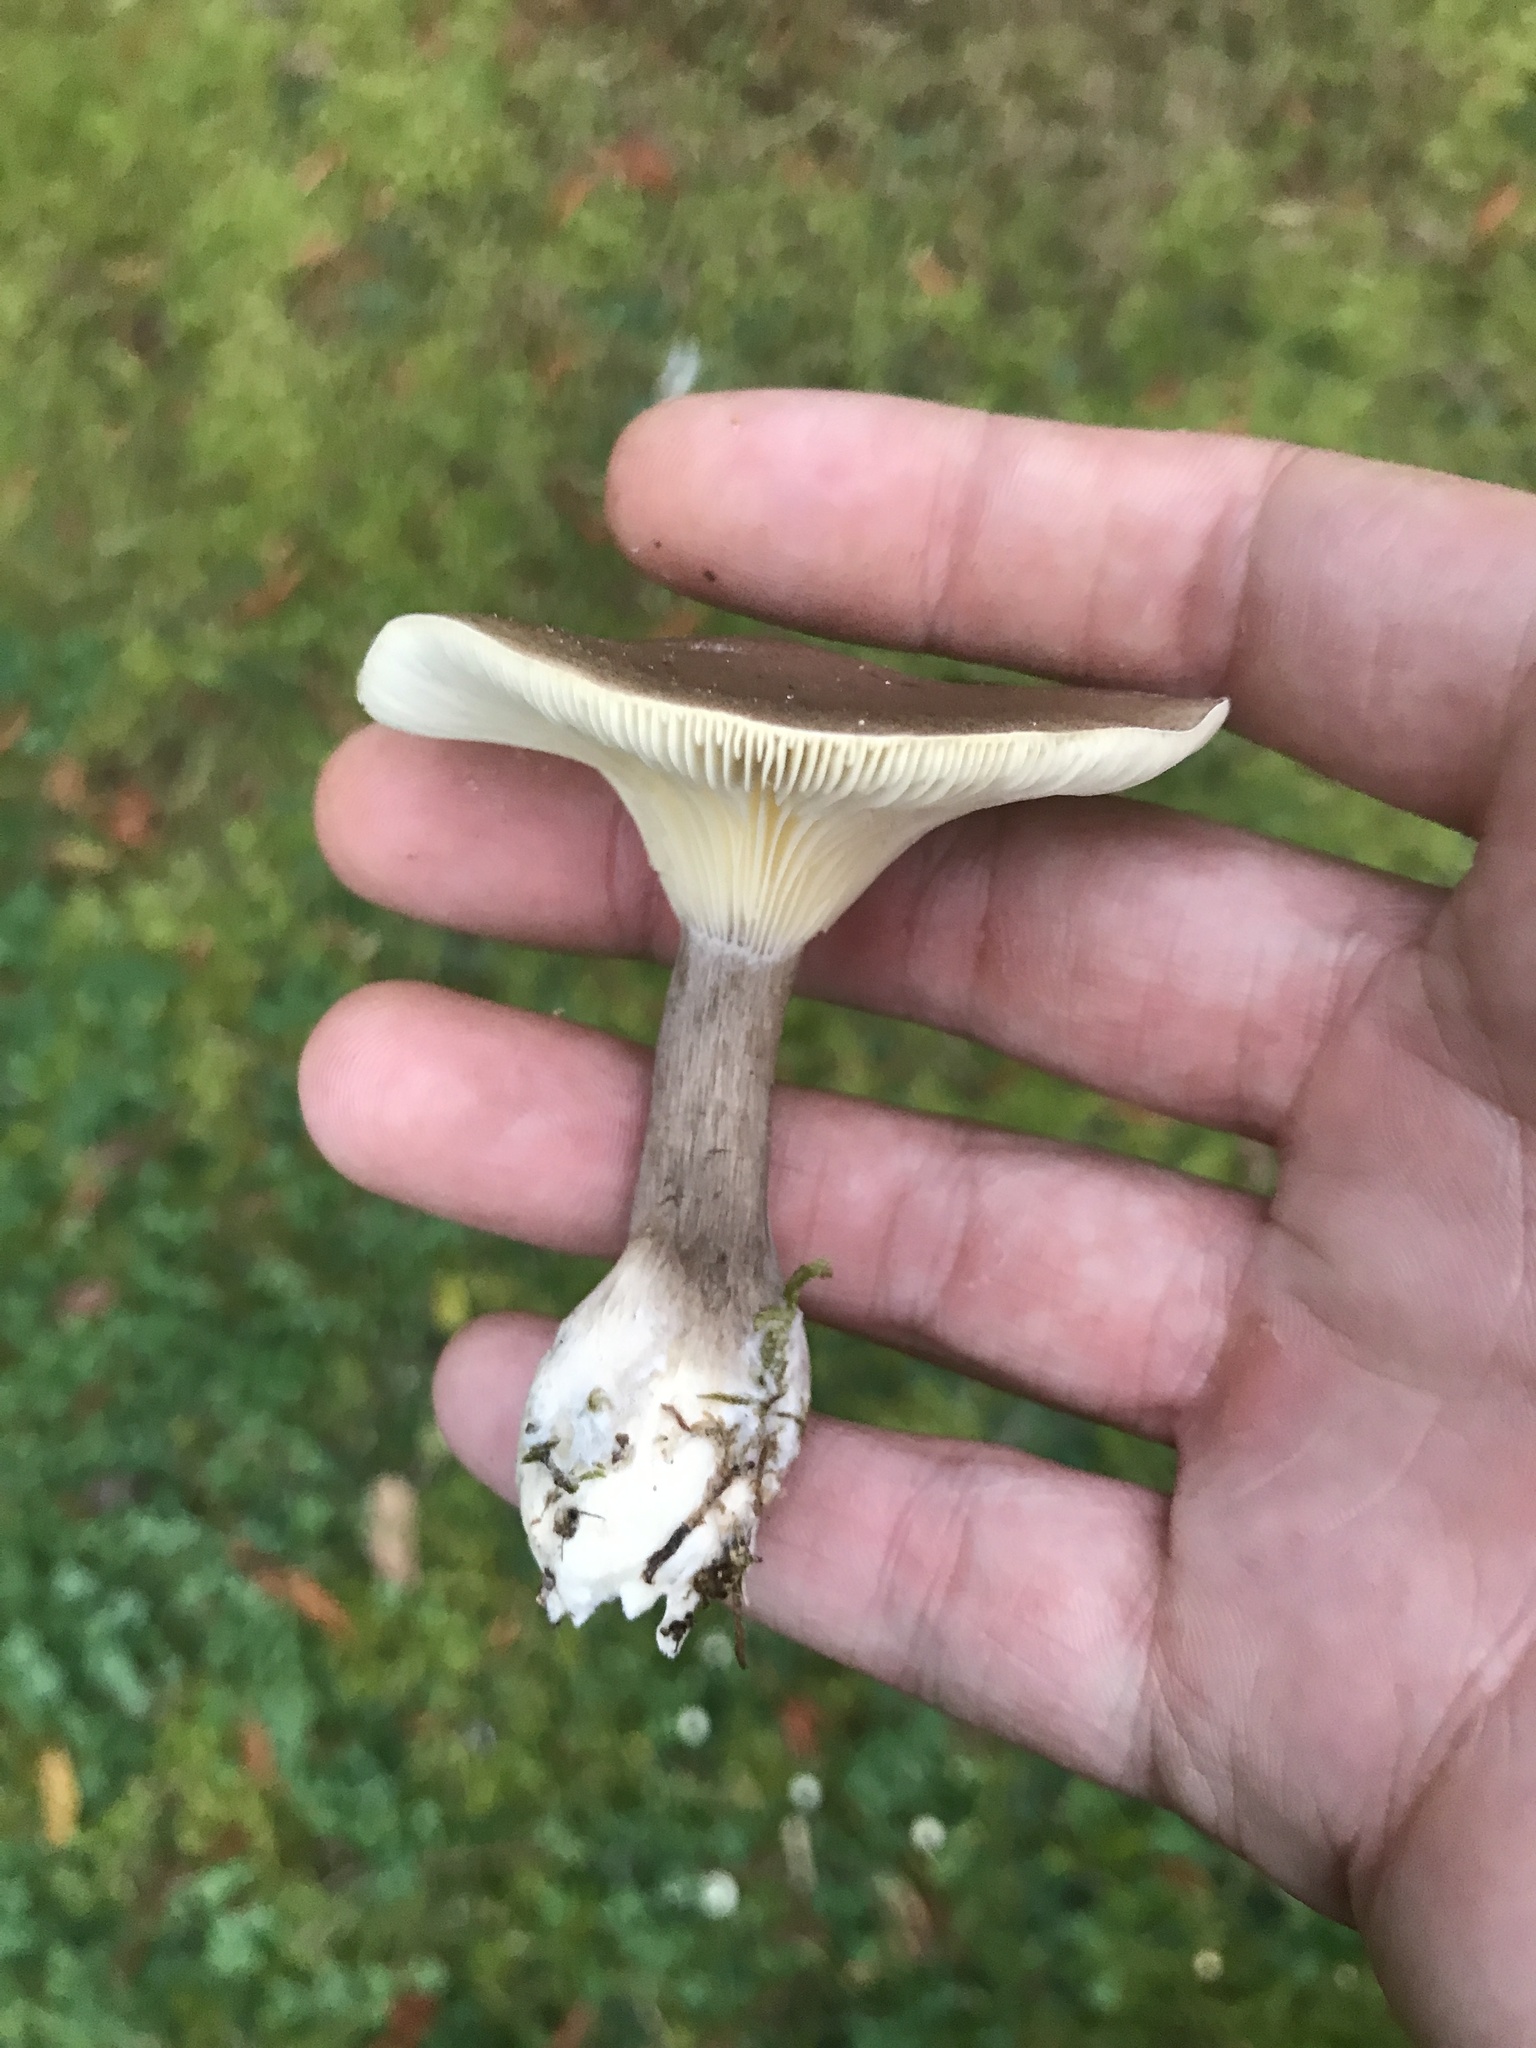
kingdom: Fungi
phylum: Basidiomycota
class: Agaricomycetes
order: Agaricales
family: Hygrophoraceae
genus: Ampulloclitocybe
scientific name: Ampulloclitocybe clavipes
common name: Club foot
